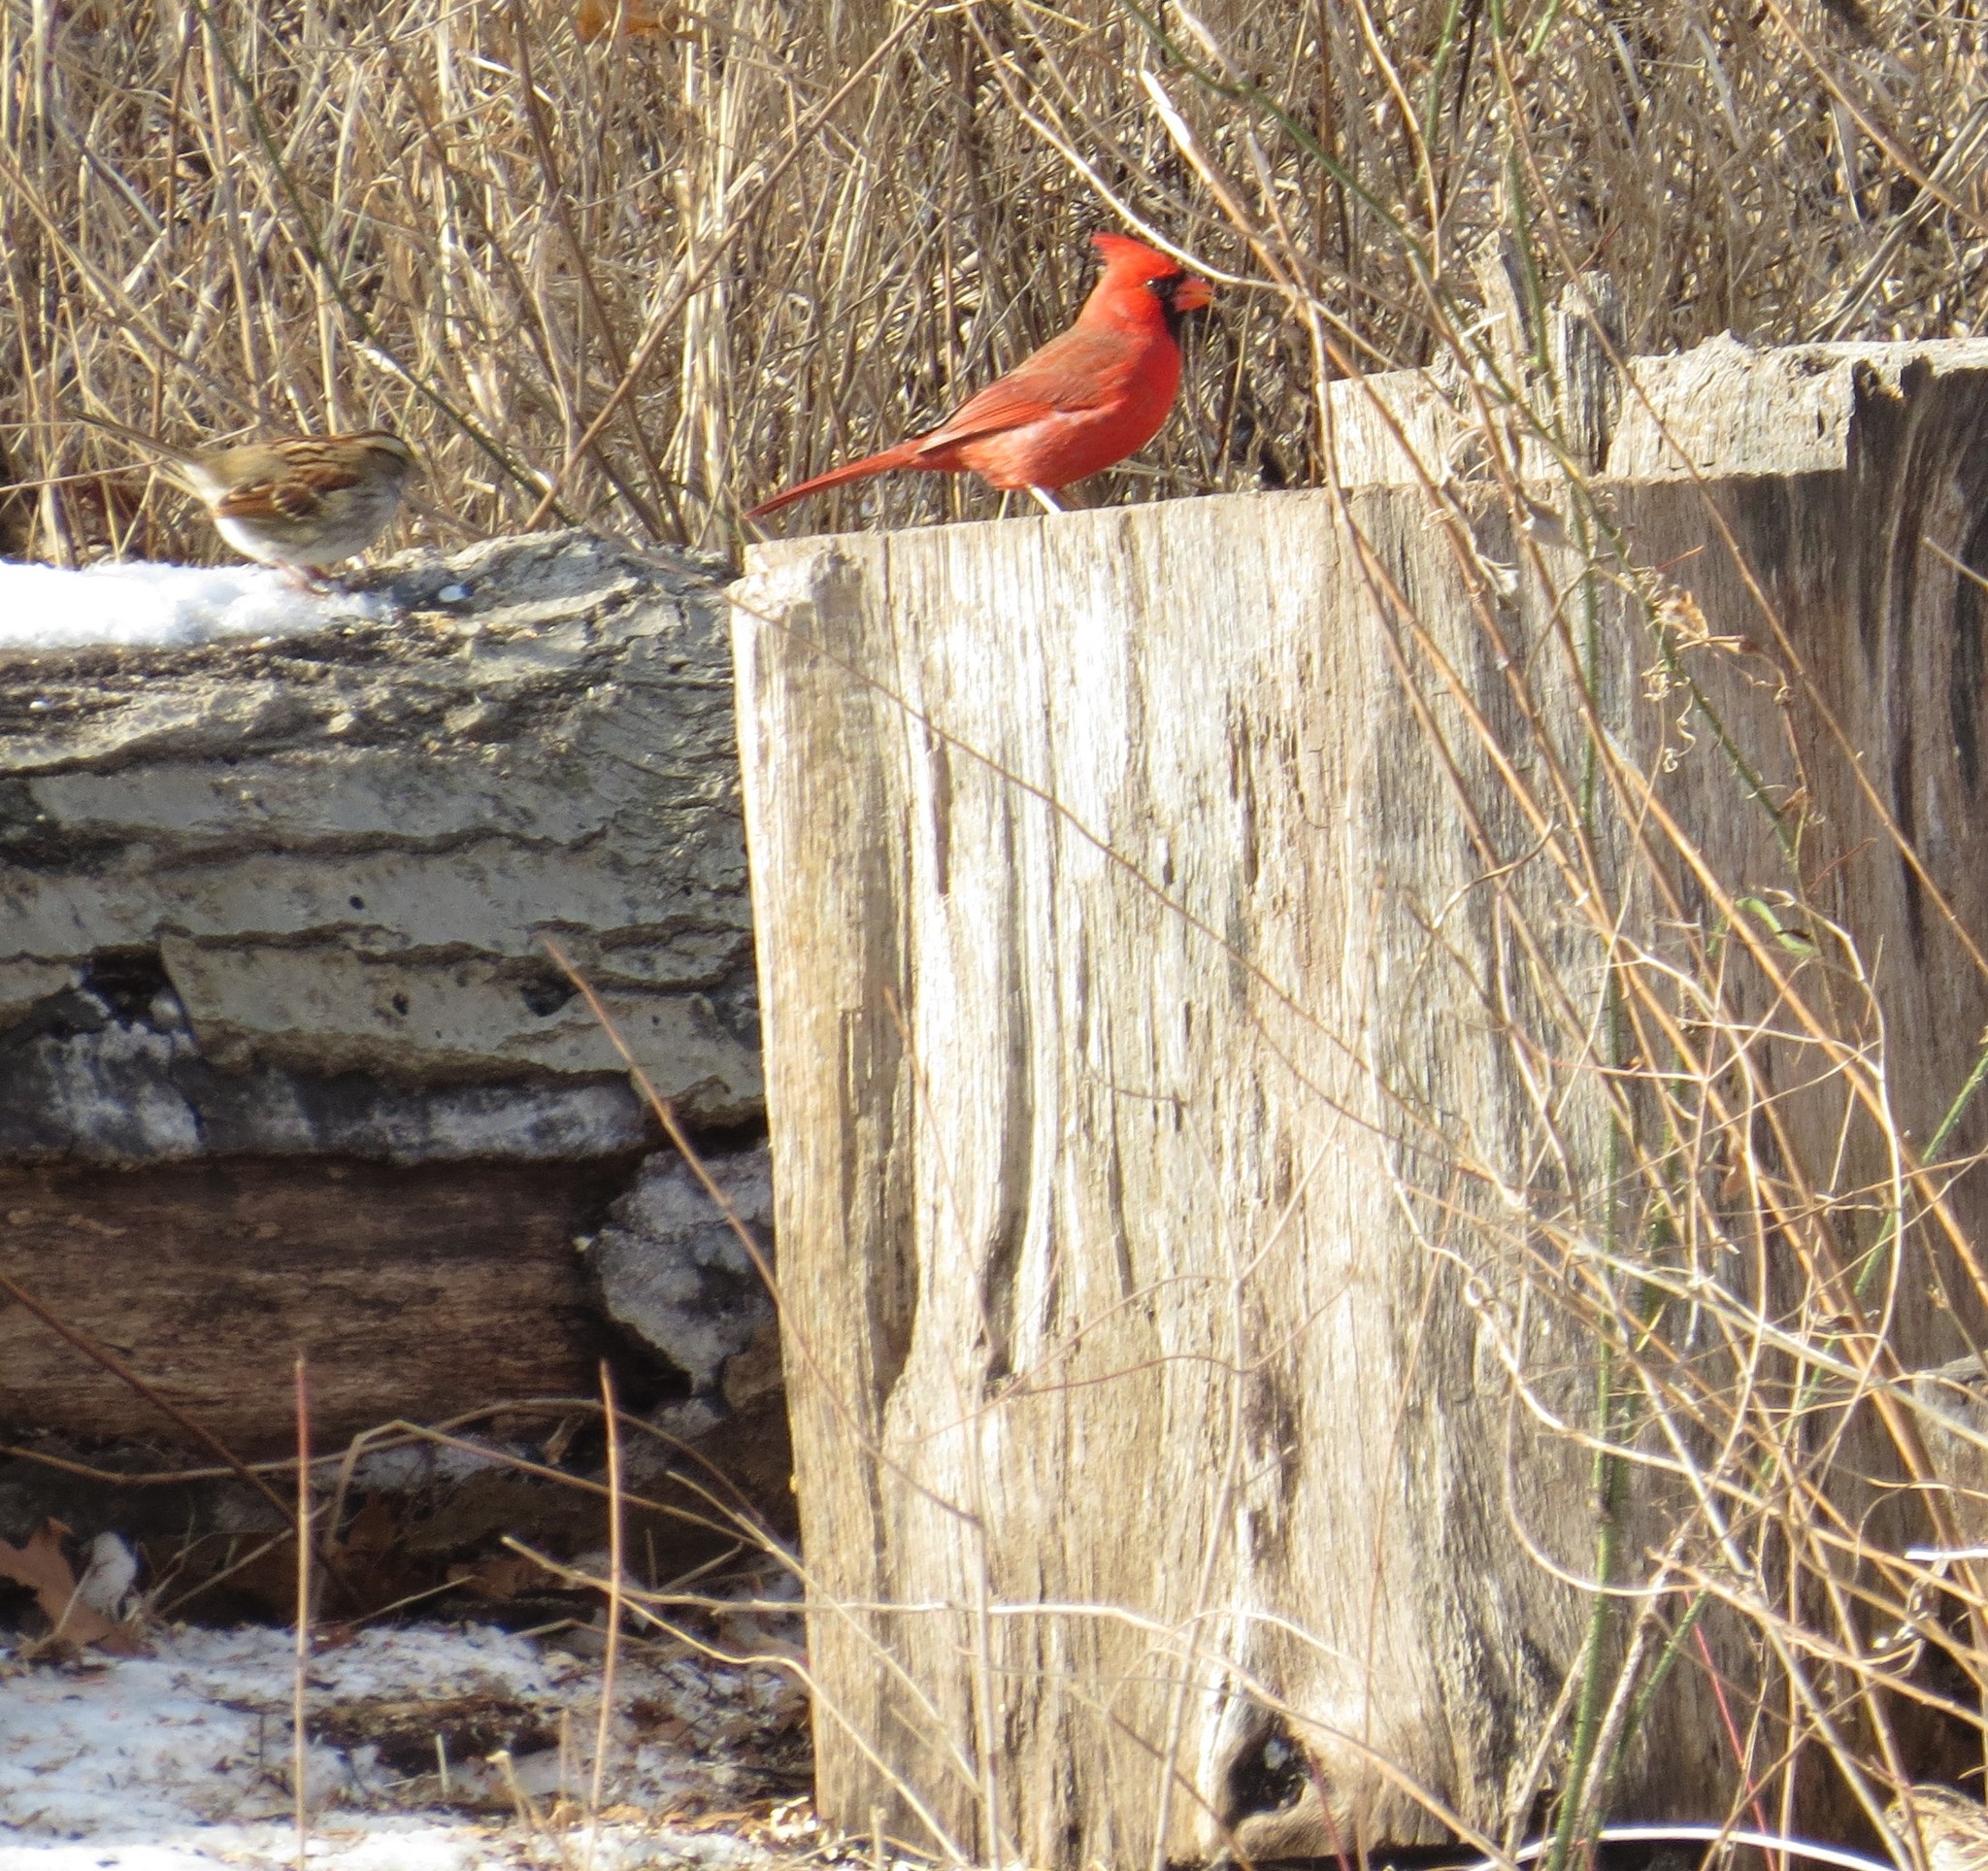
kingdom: Animalia
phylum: Chordata
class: Aves
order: Passeriformes
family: Cardinalidae
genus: Cardinalis
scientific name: Cardinalis cardinalis
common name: Northern cardinal
